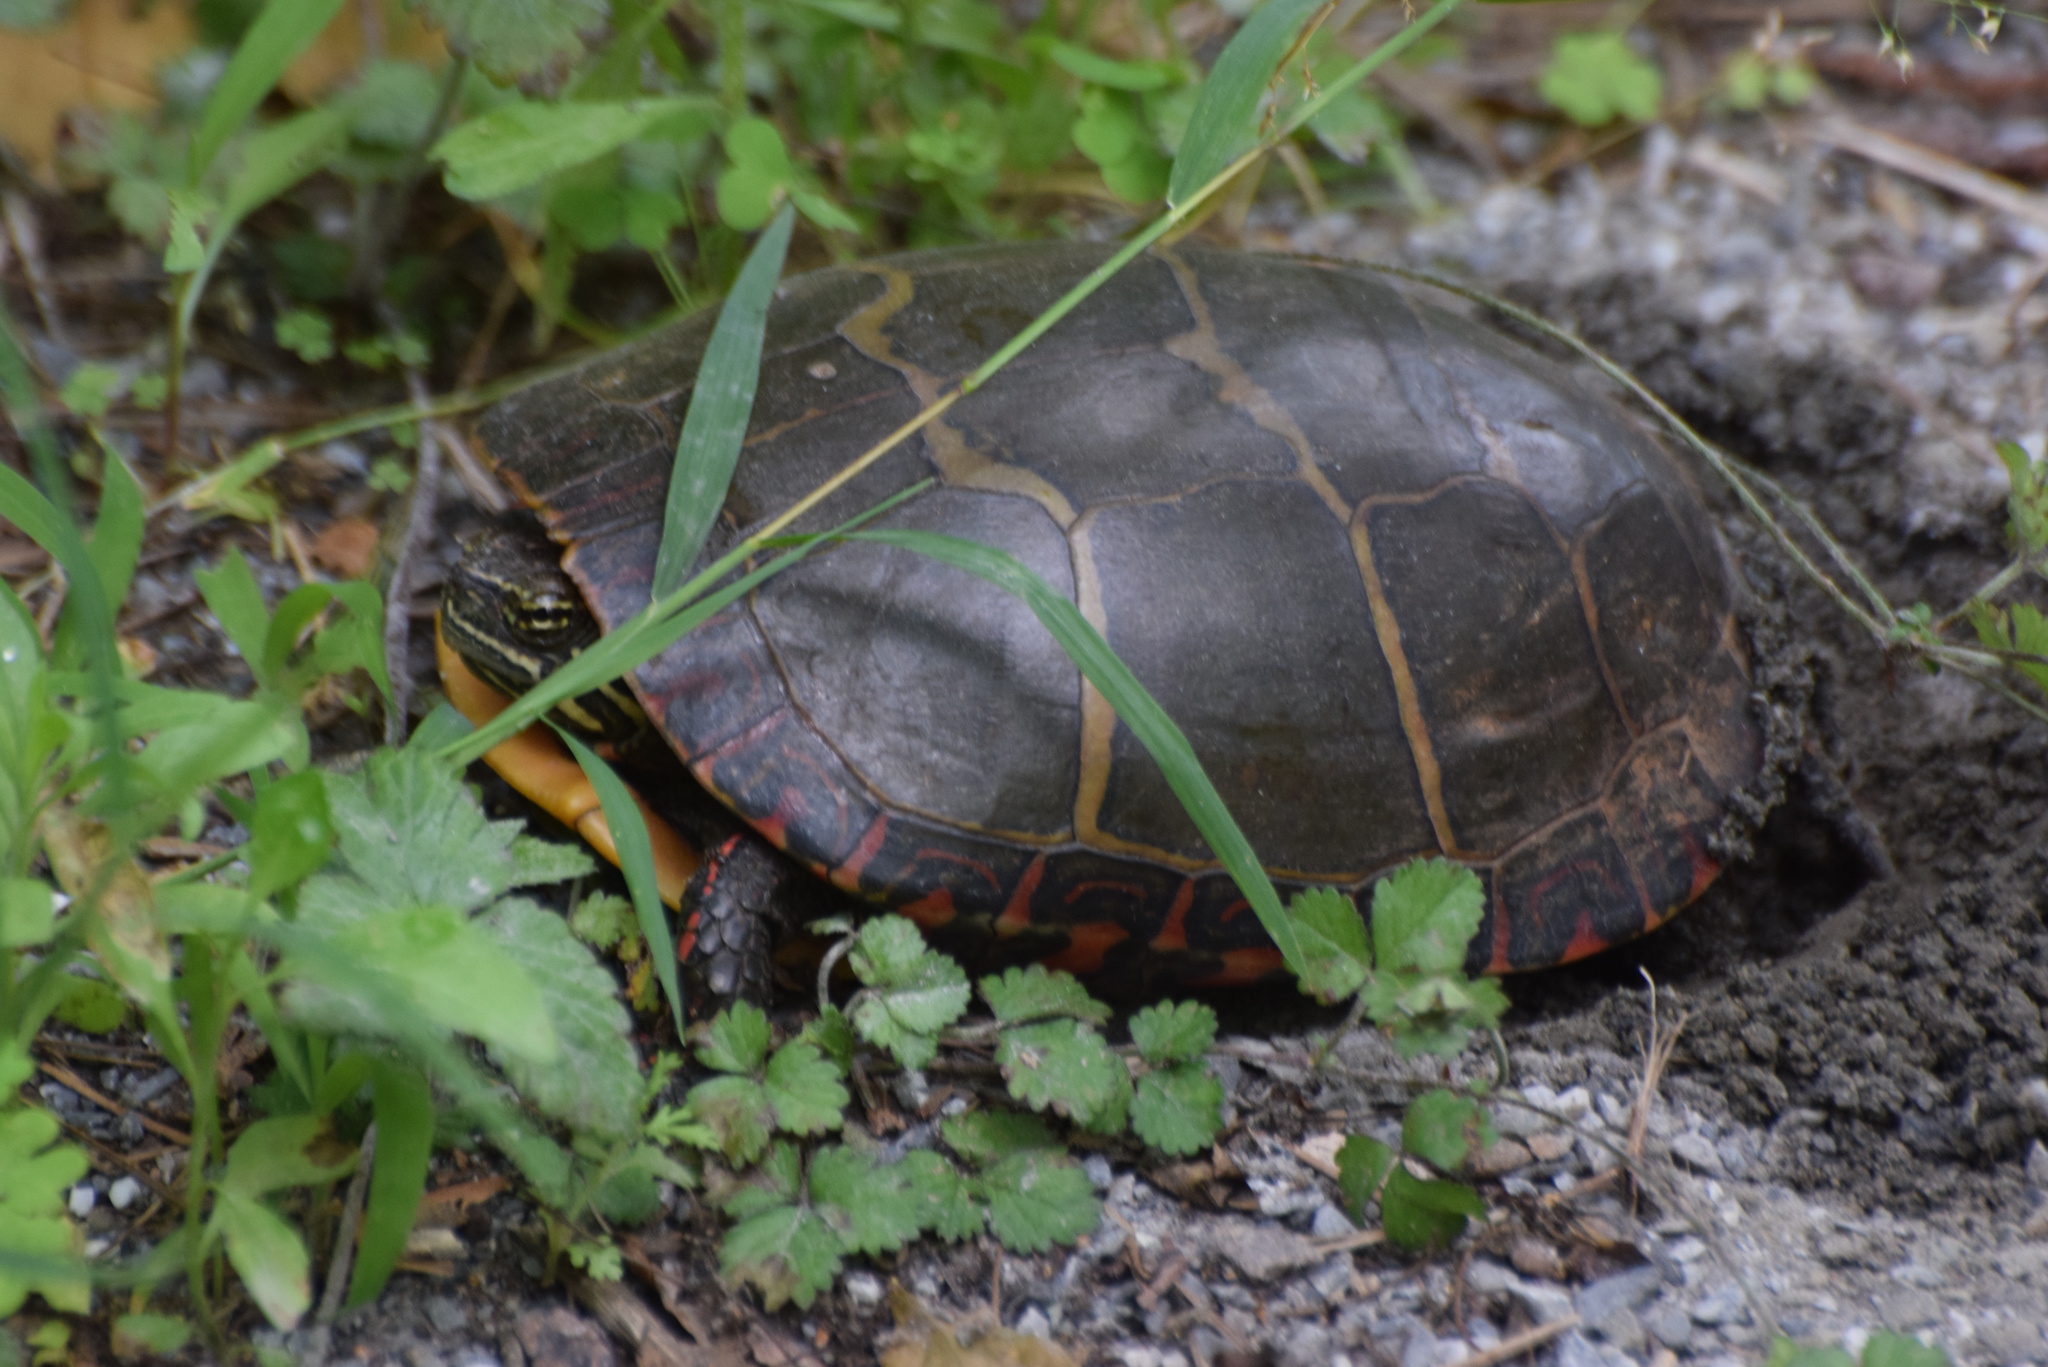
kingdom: Animalia
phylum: Chordata
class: Testudines
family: Emydidae
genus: Chrysemys
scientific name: Chrysemys picta
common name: Painted turtle
